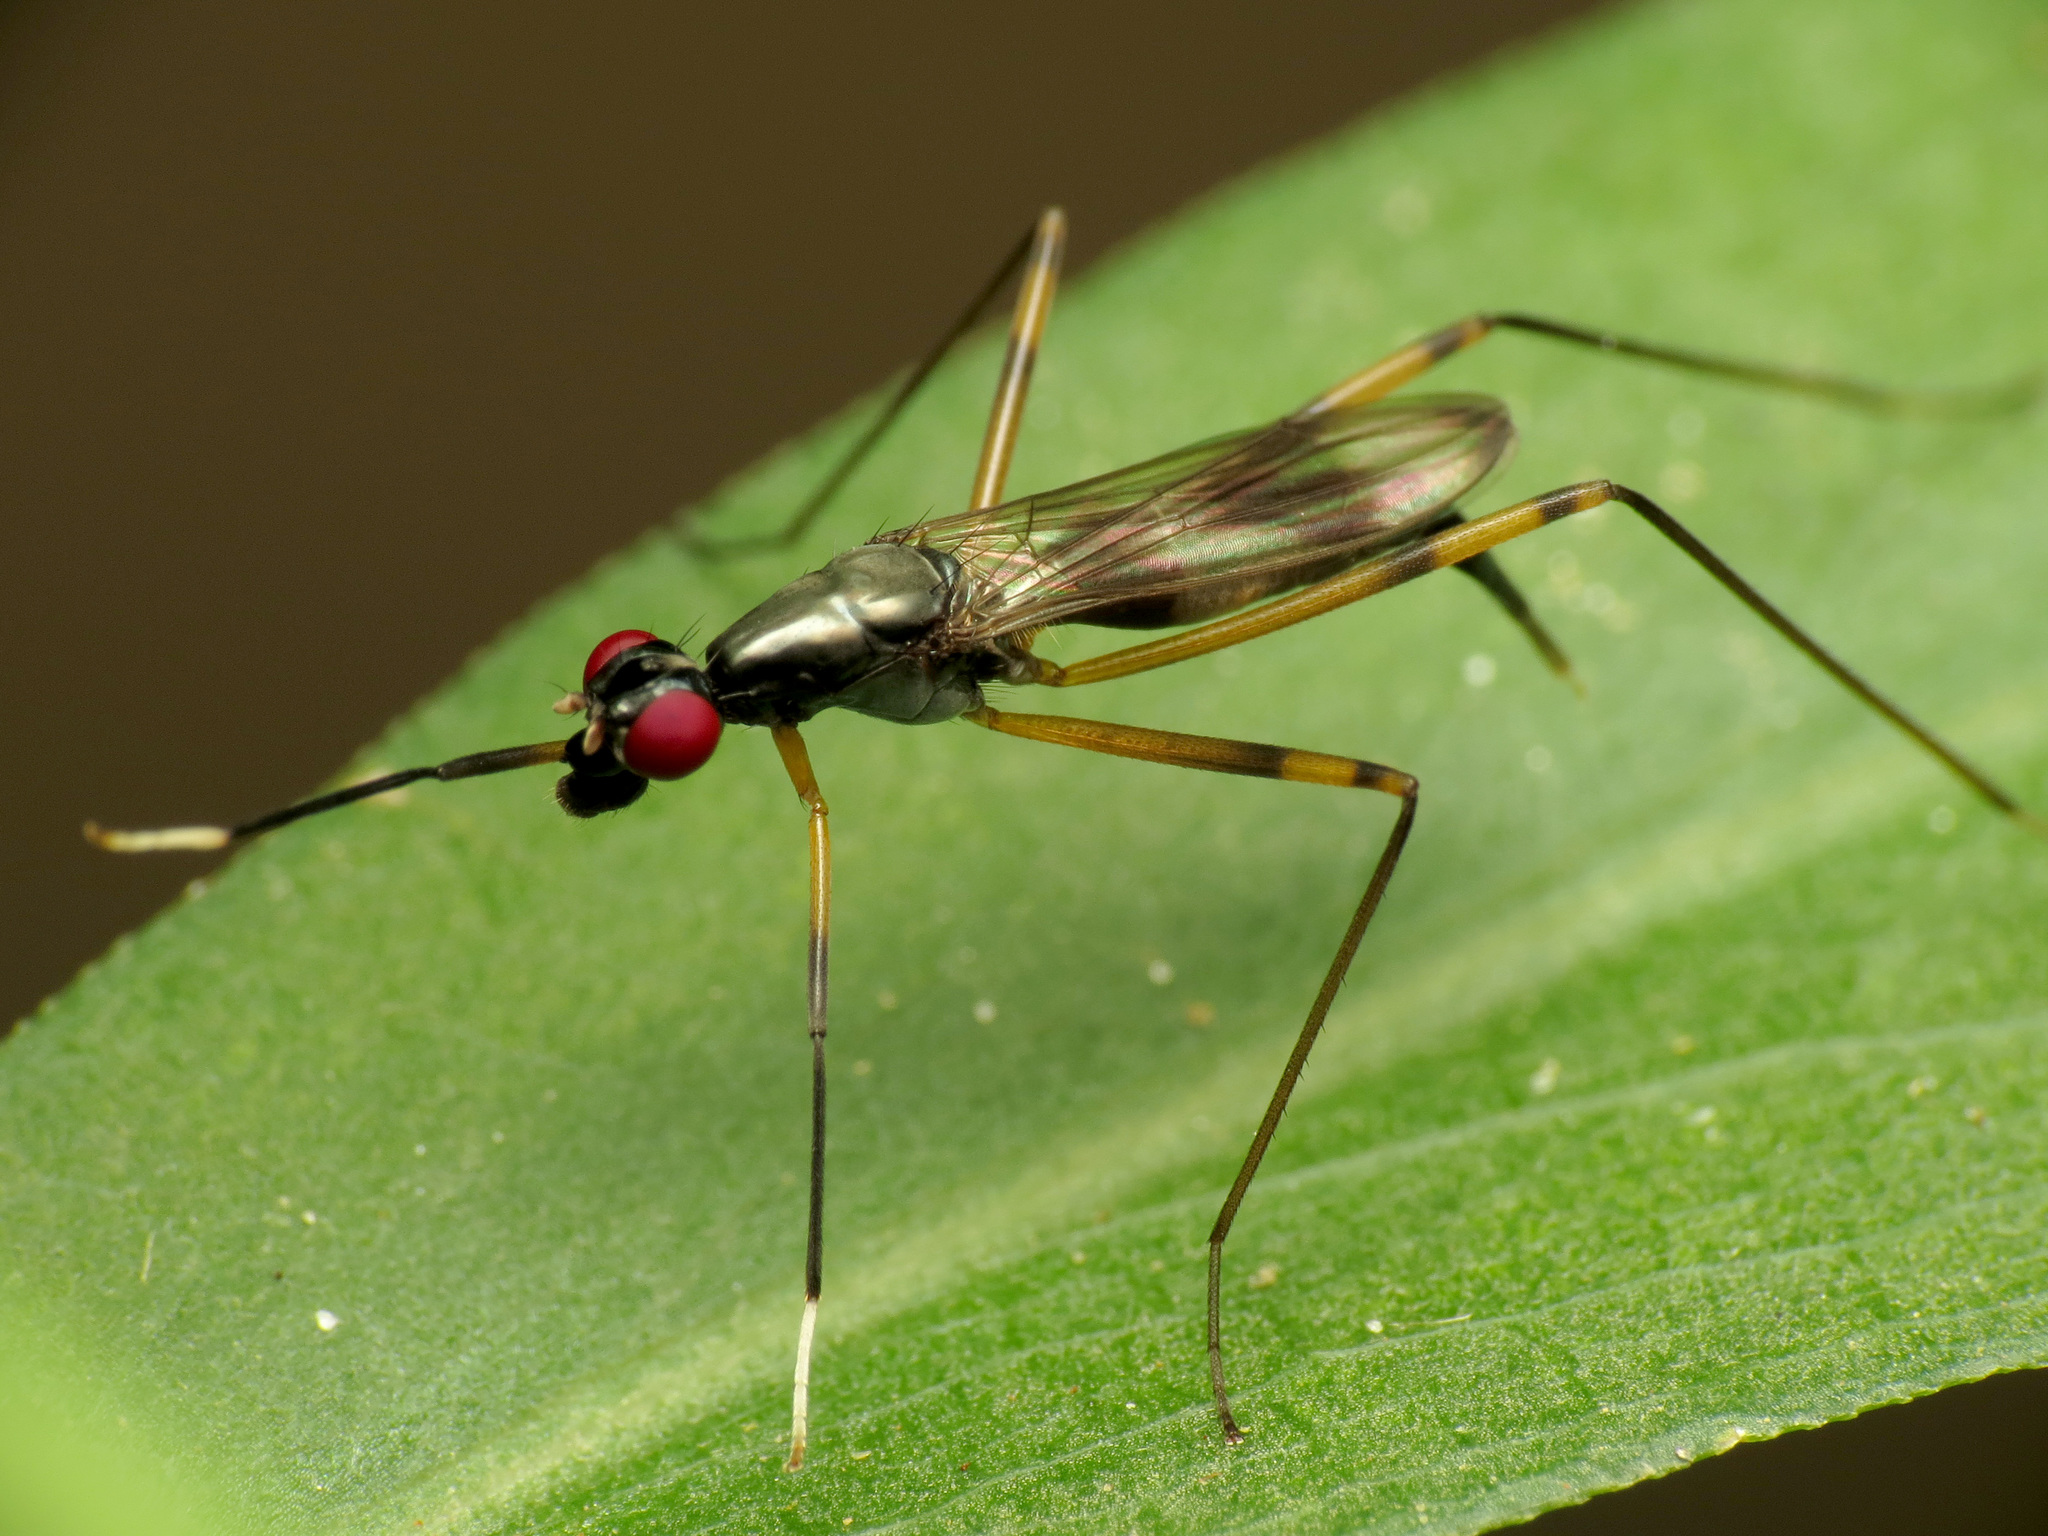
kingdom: Animalia
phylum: Arthropoda
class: Insecta
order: Diptera
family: Micropezidae
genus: Rainieria
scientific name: Rainieria antennaepes
